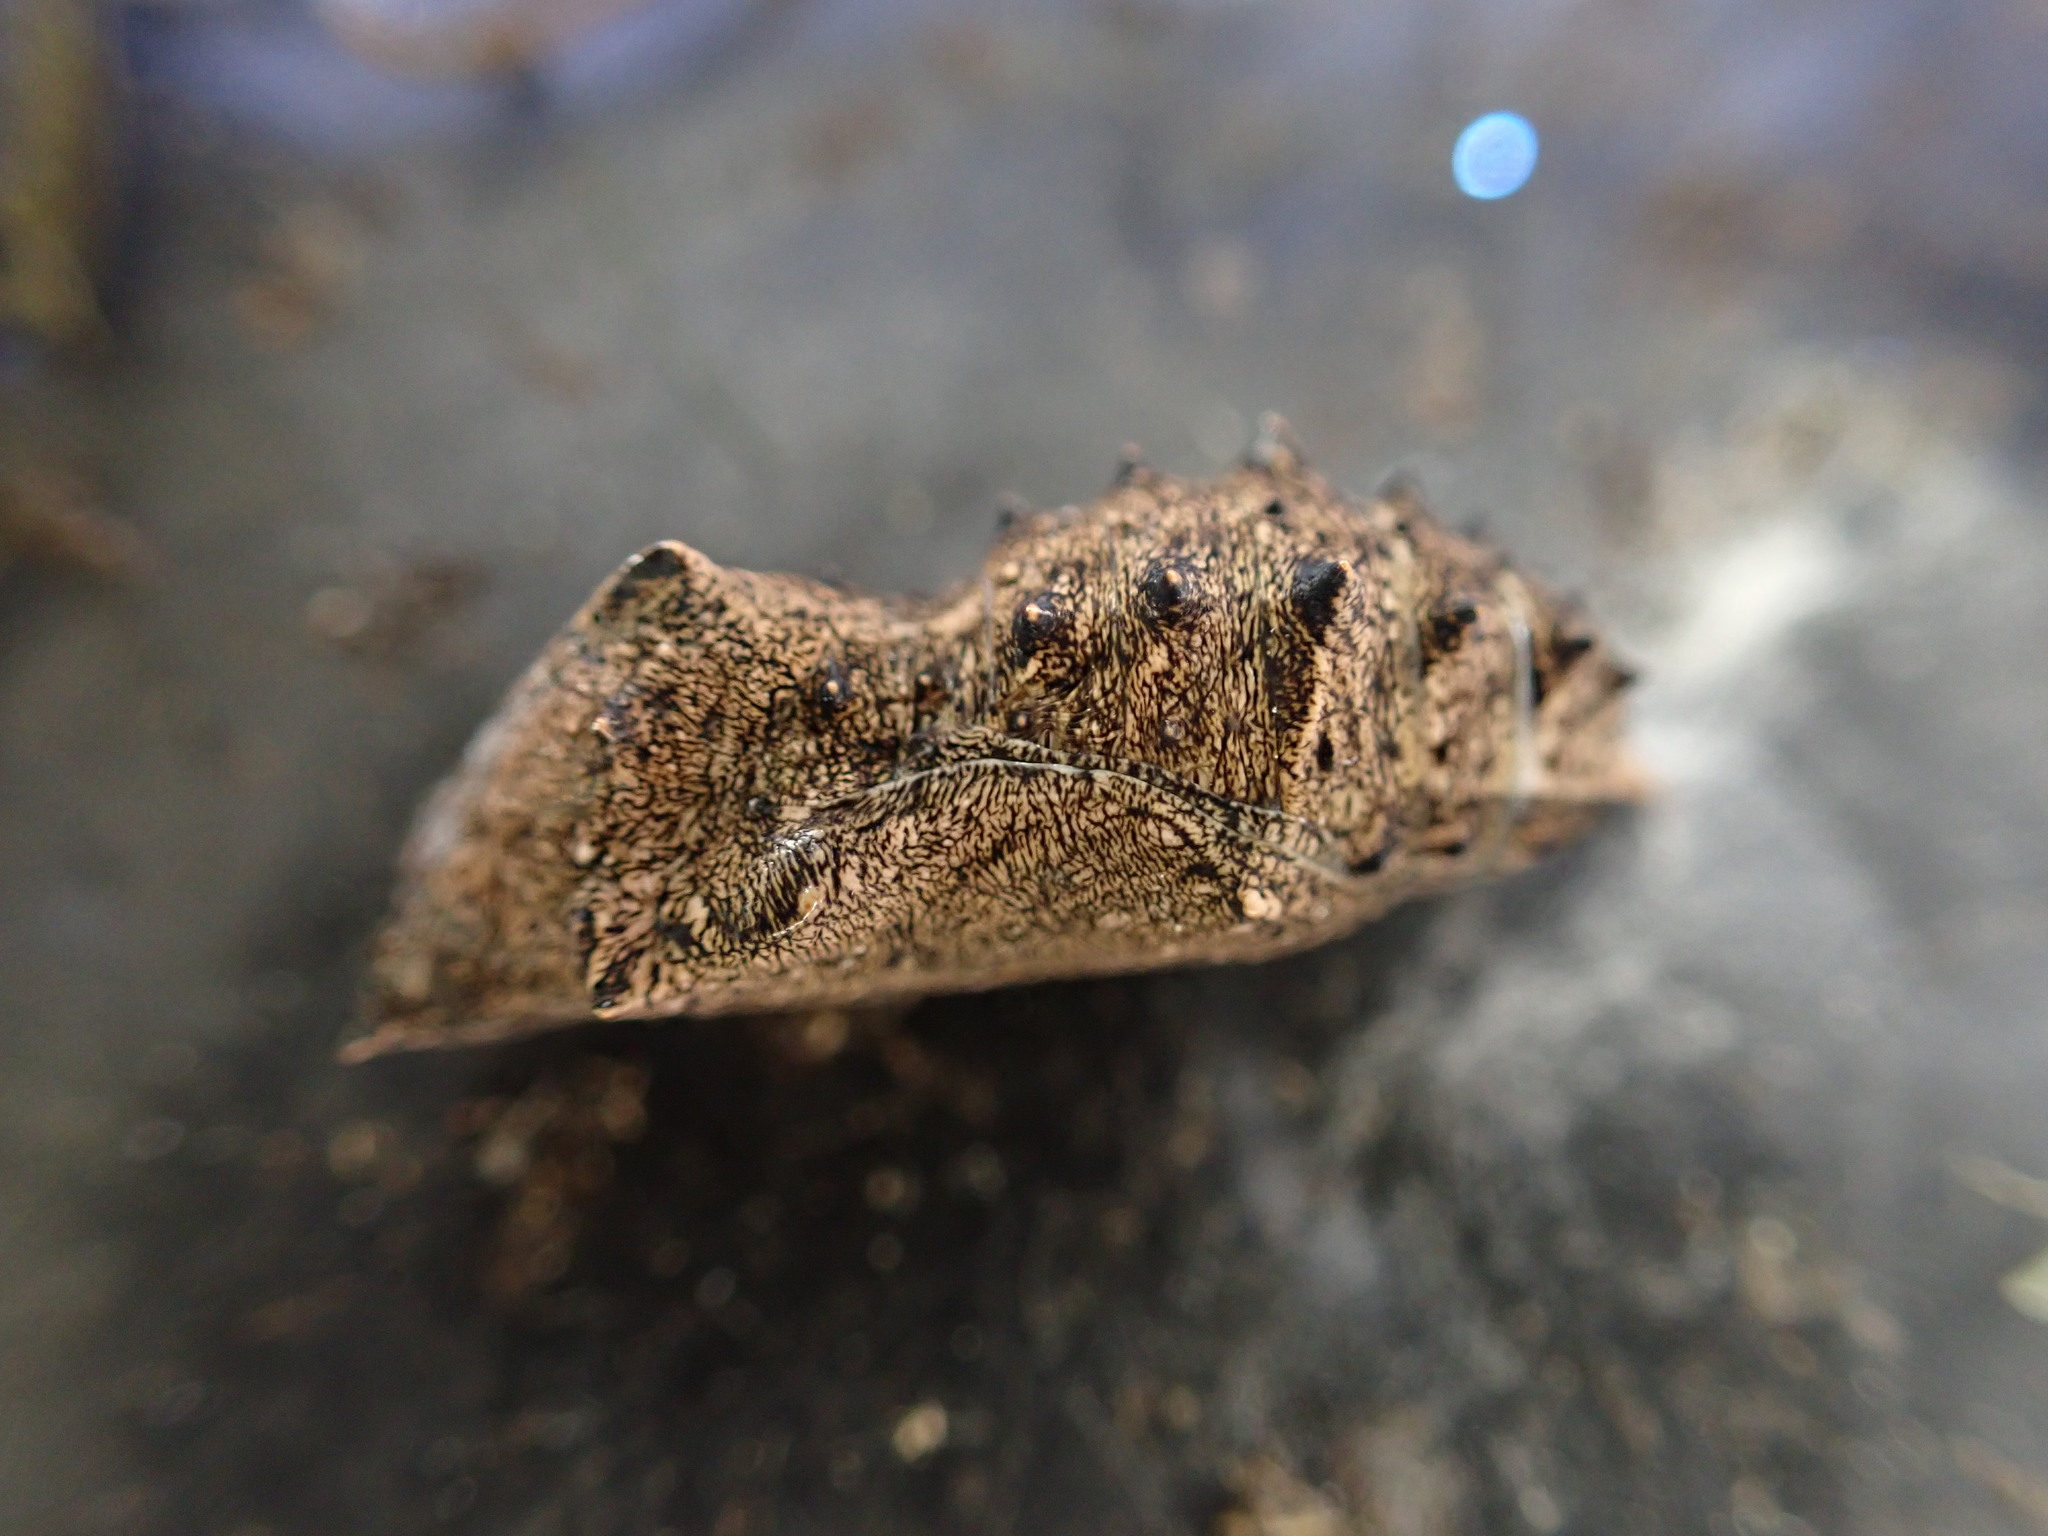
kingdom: Animalia
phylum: Arthropoda
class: Insecta
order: Lepidoptera
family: Nymphalidae
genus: Vanessa
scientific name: Vanessa itea
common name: Yellow admiral
